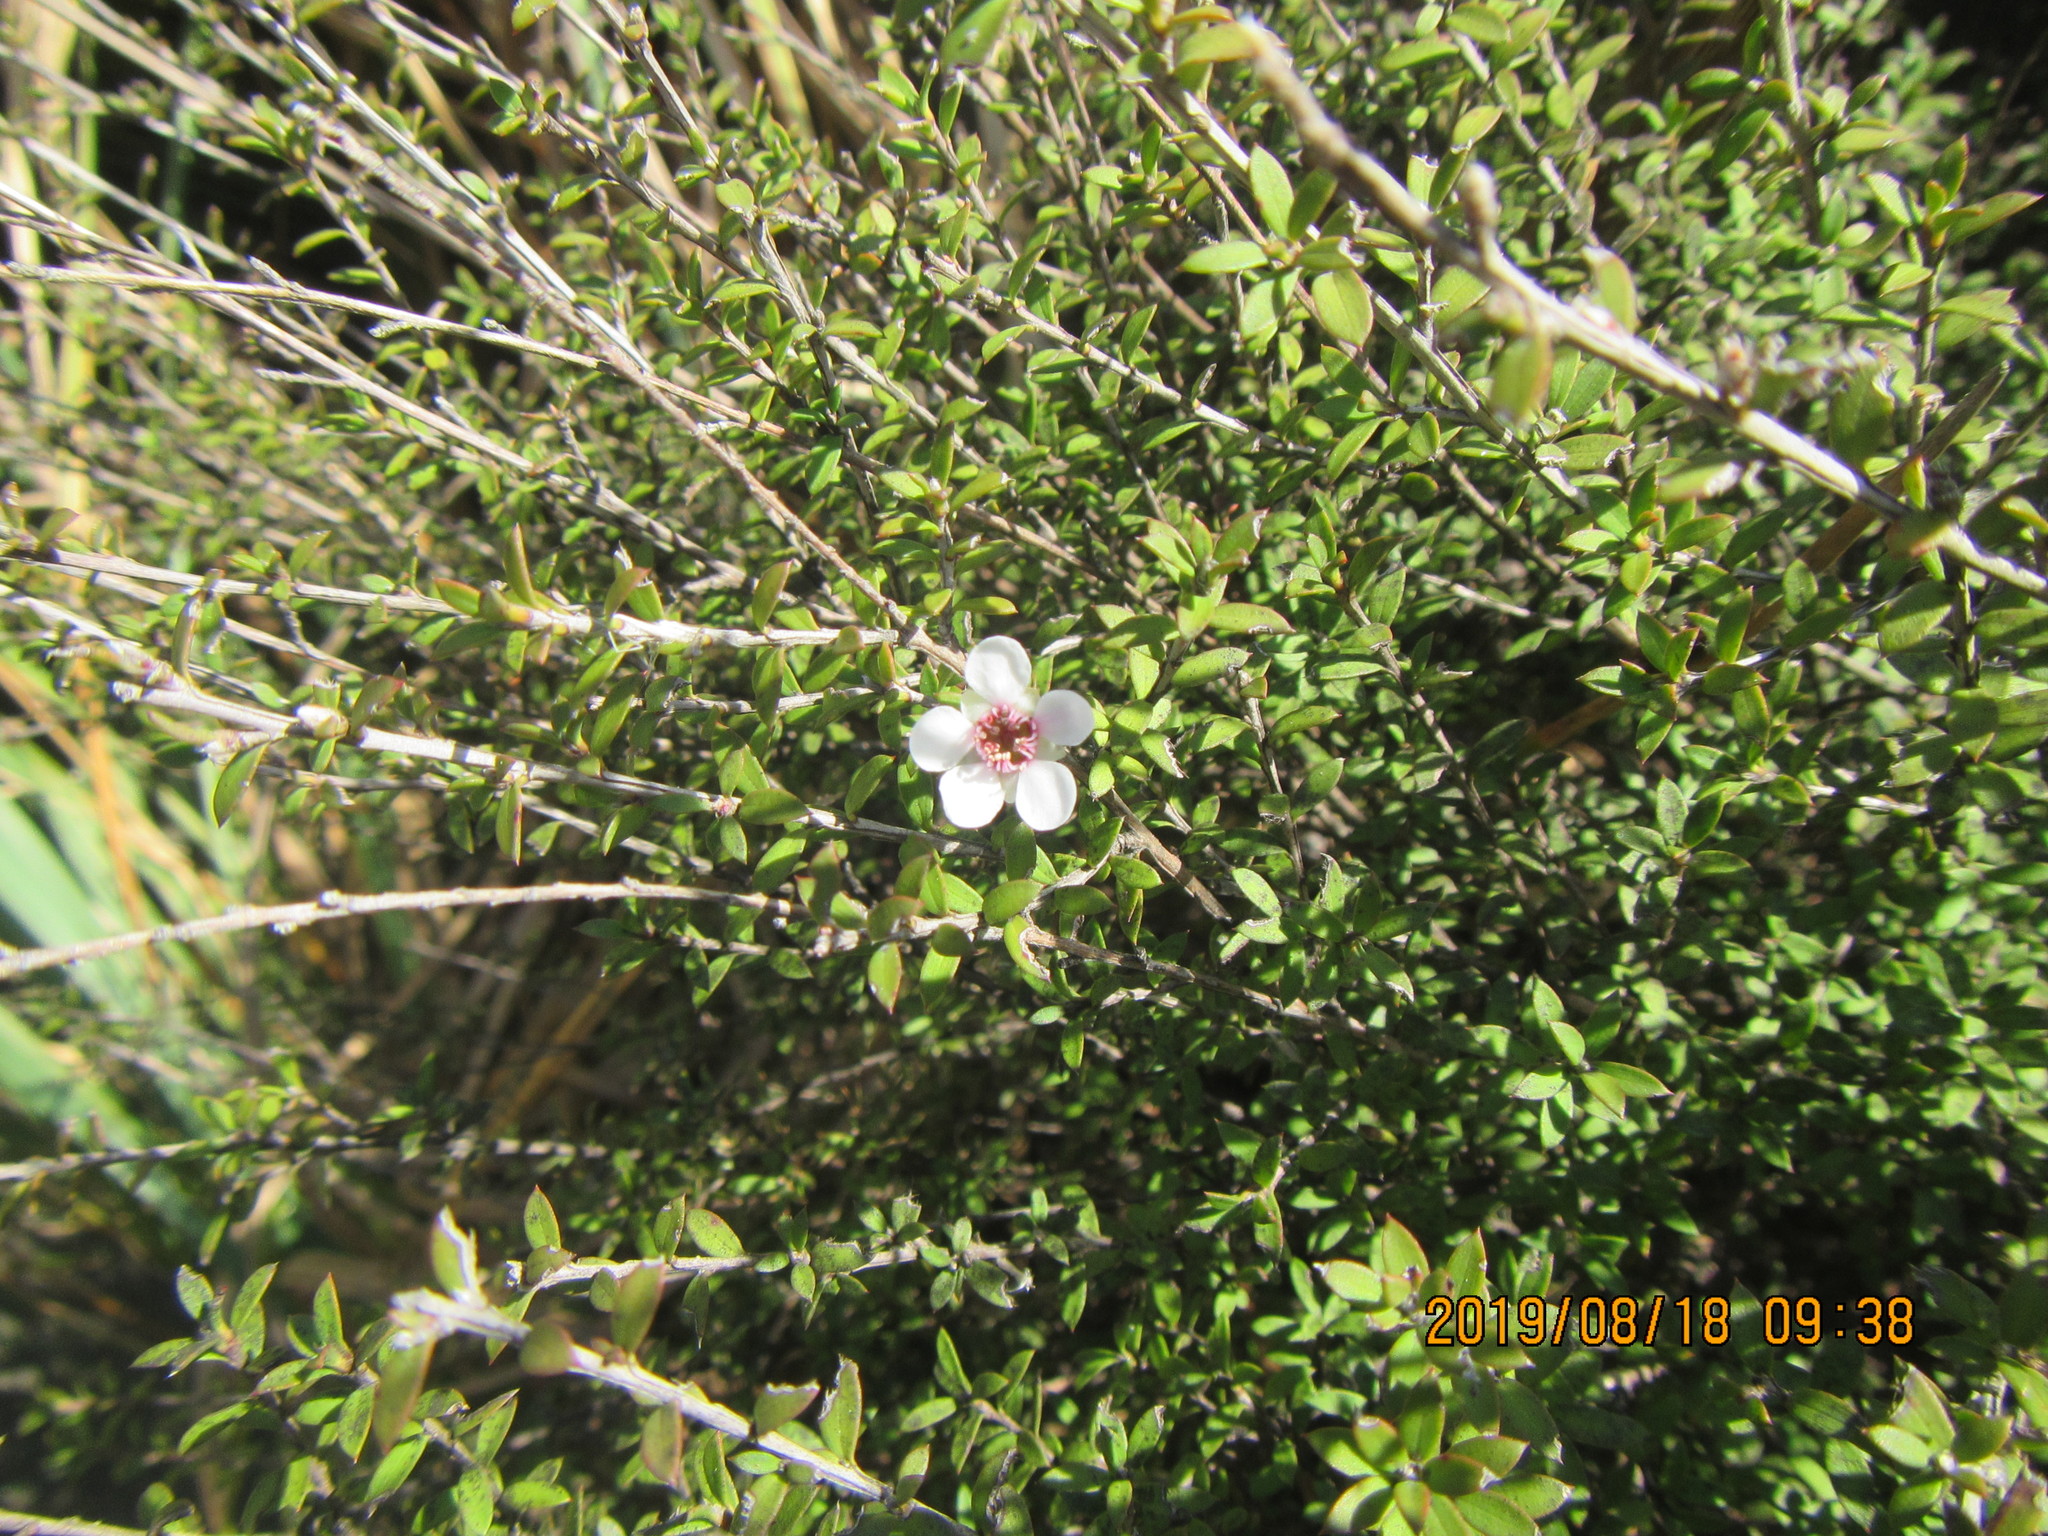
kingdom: Plantae
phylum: Tracheophyta
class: Magnoliopsida
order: Myrtales
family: Myrtaceae
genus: Leptospermum
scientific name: Leptospermum scoparium
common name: Broom tea-tree
